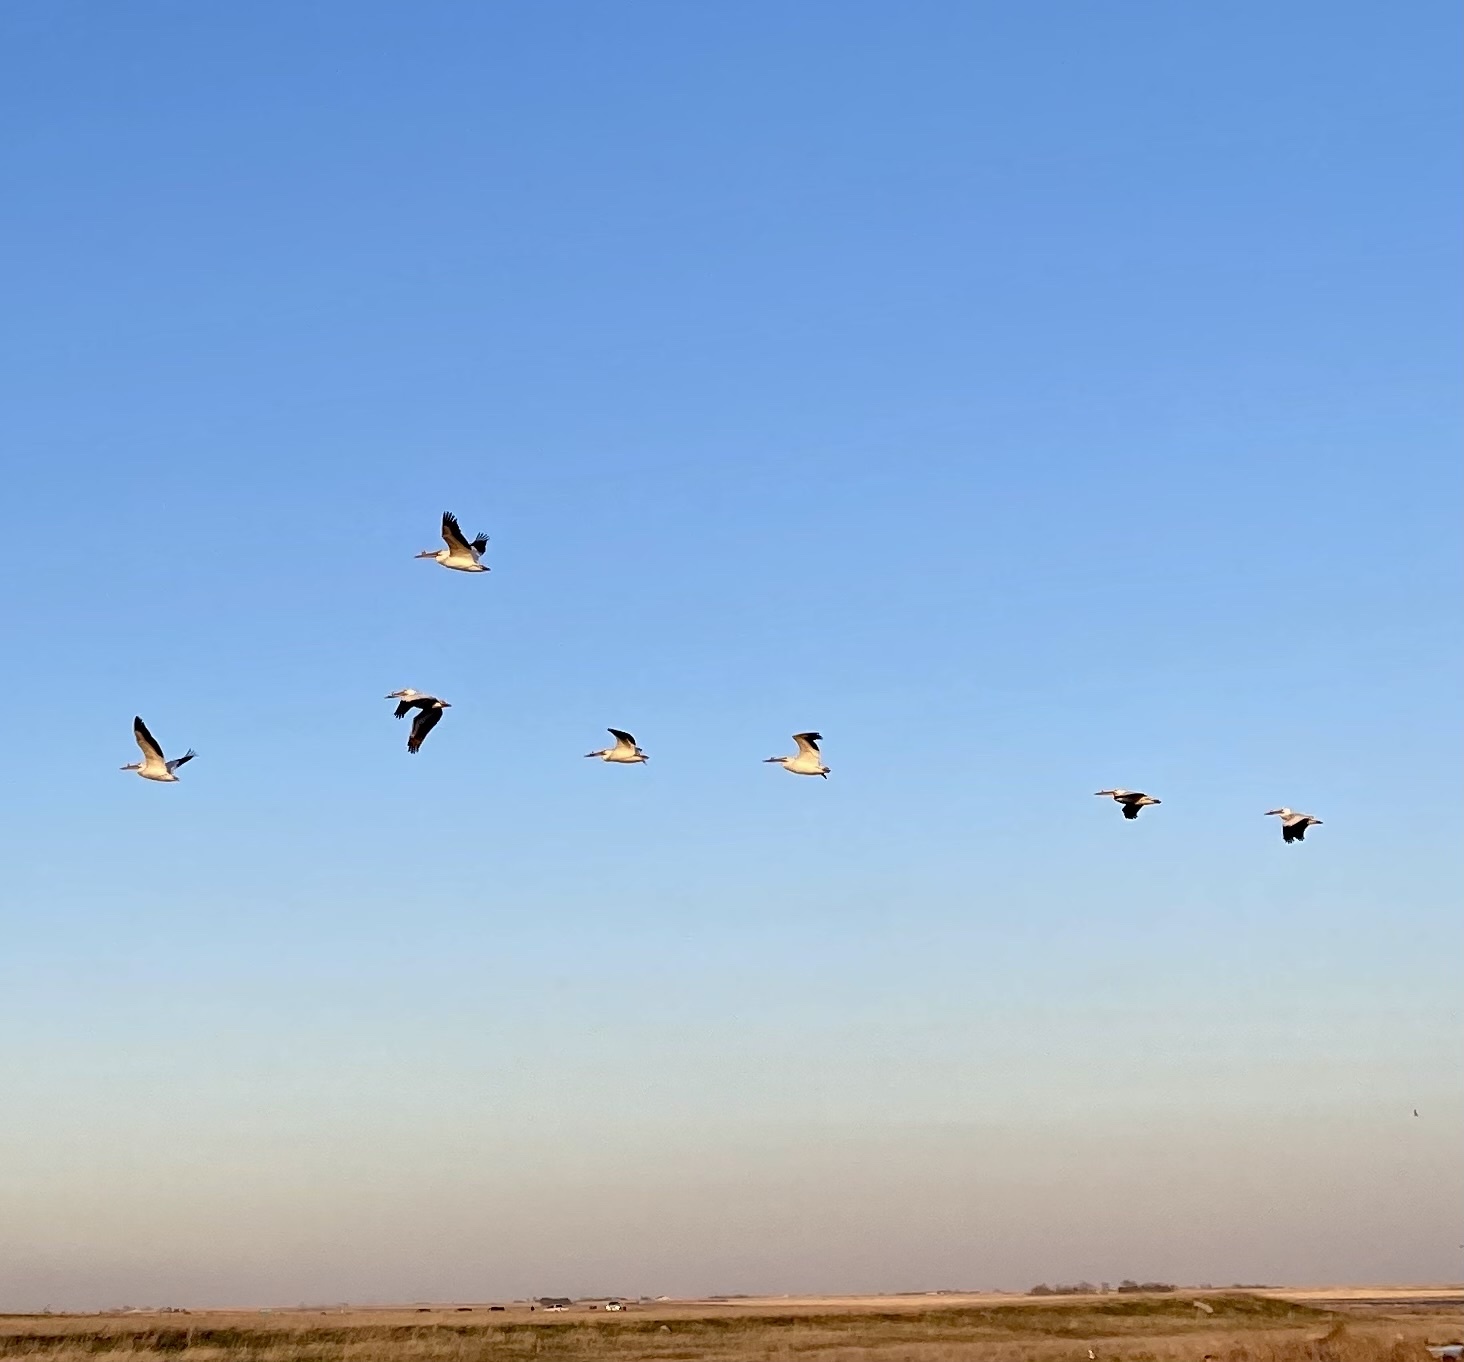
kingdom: Animalia
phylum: Chordata
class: Aves
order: Pelecaniformes
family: Pelecanidae
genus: Pelecanus
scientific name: Pelecanus erythrorhynchos
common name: American white pelican
